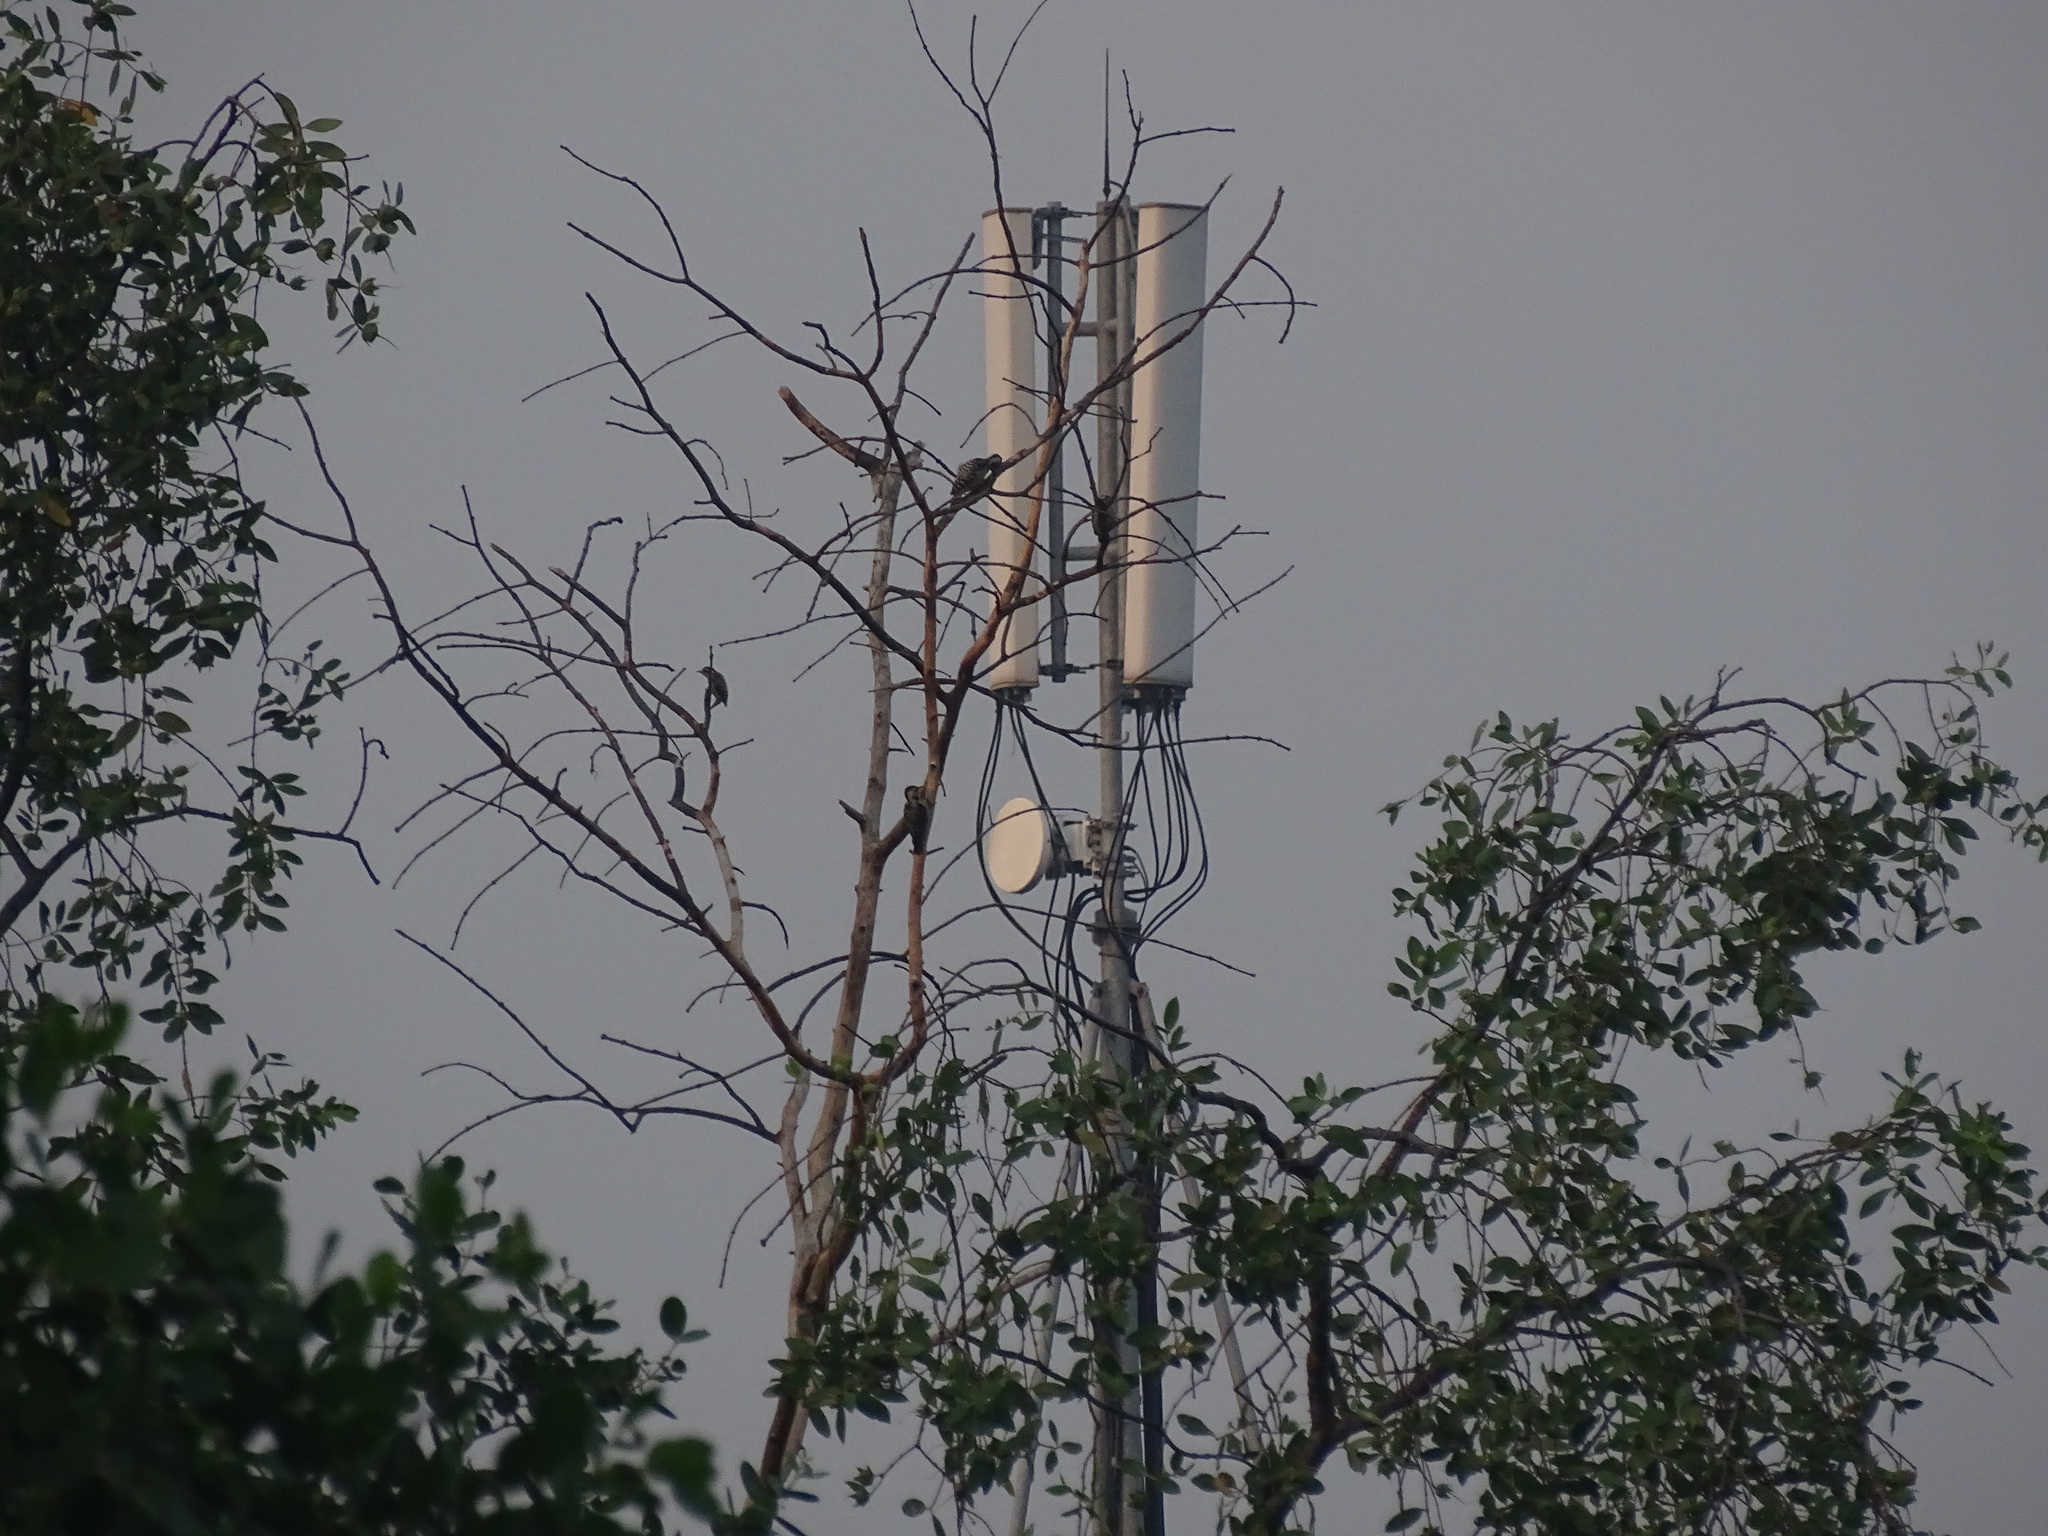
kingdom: Animalia
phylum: Chordata
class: Aves
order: Piciformes
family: Picidae
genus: Yungipicus
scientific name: Yungipicus moluccensis
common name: Sunda pygmy woodpecker
